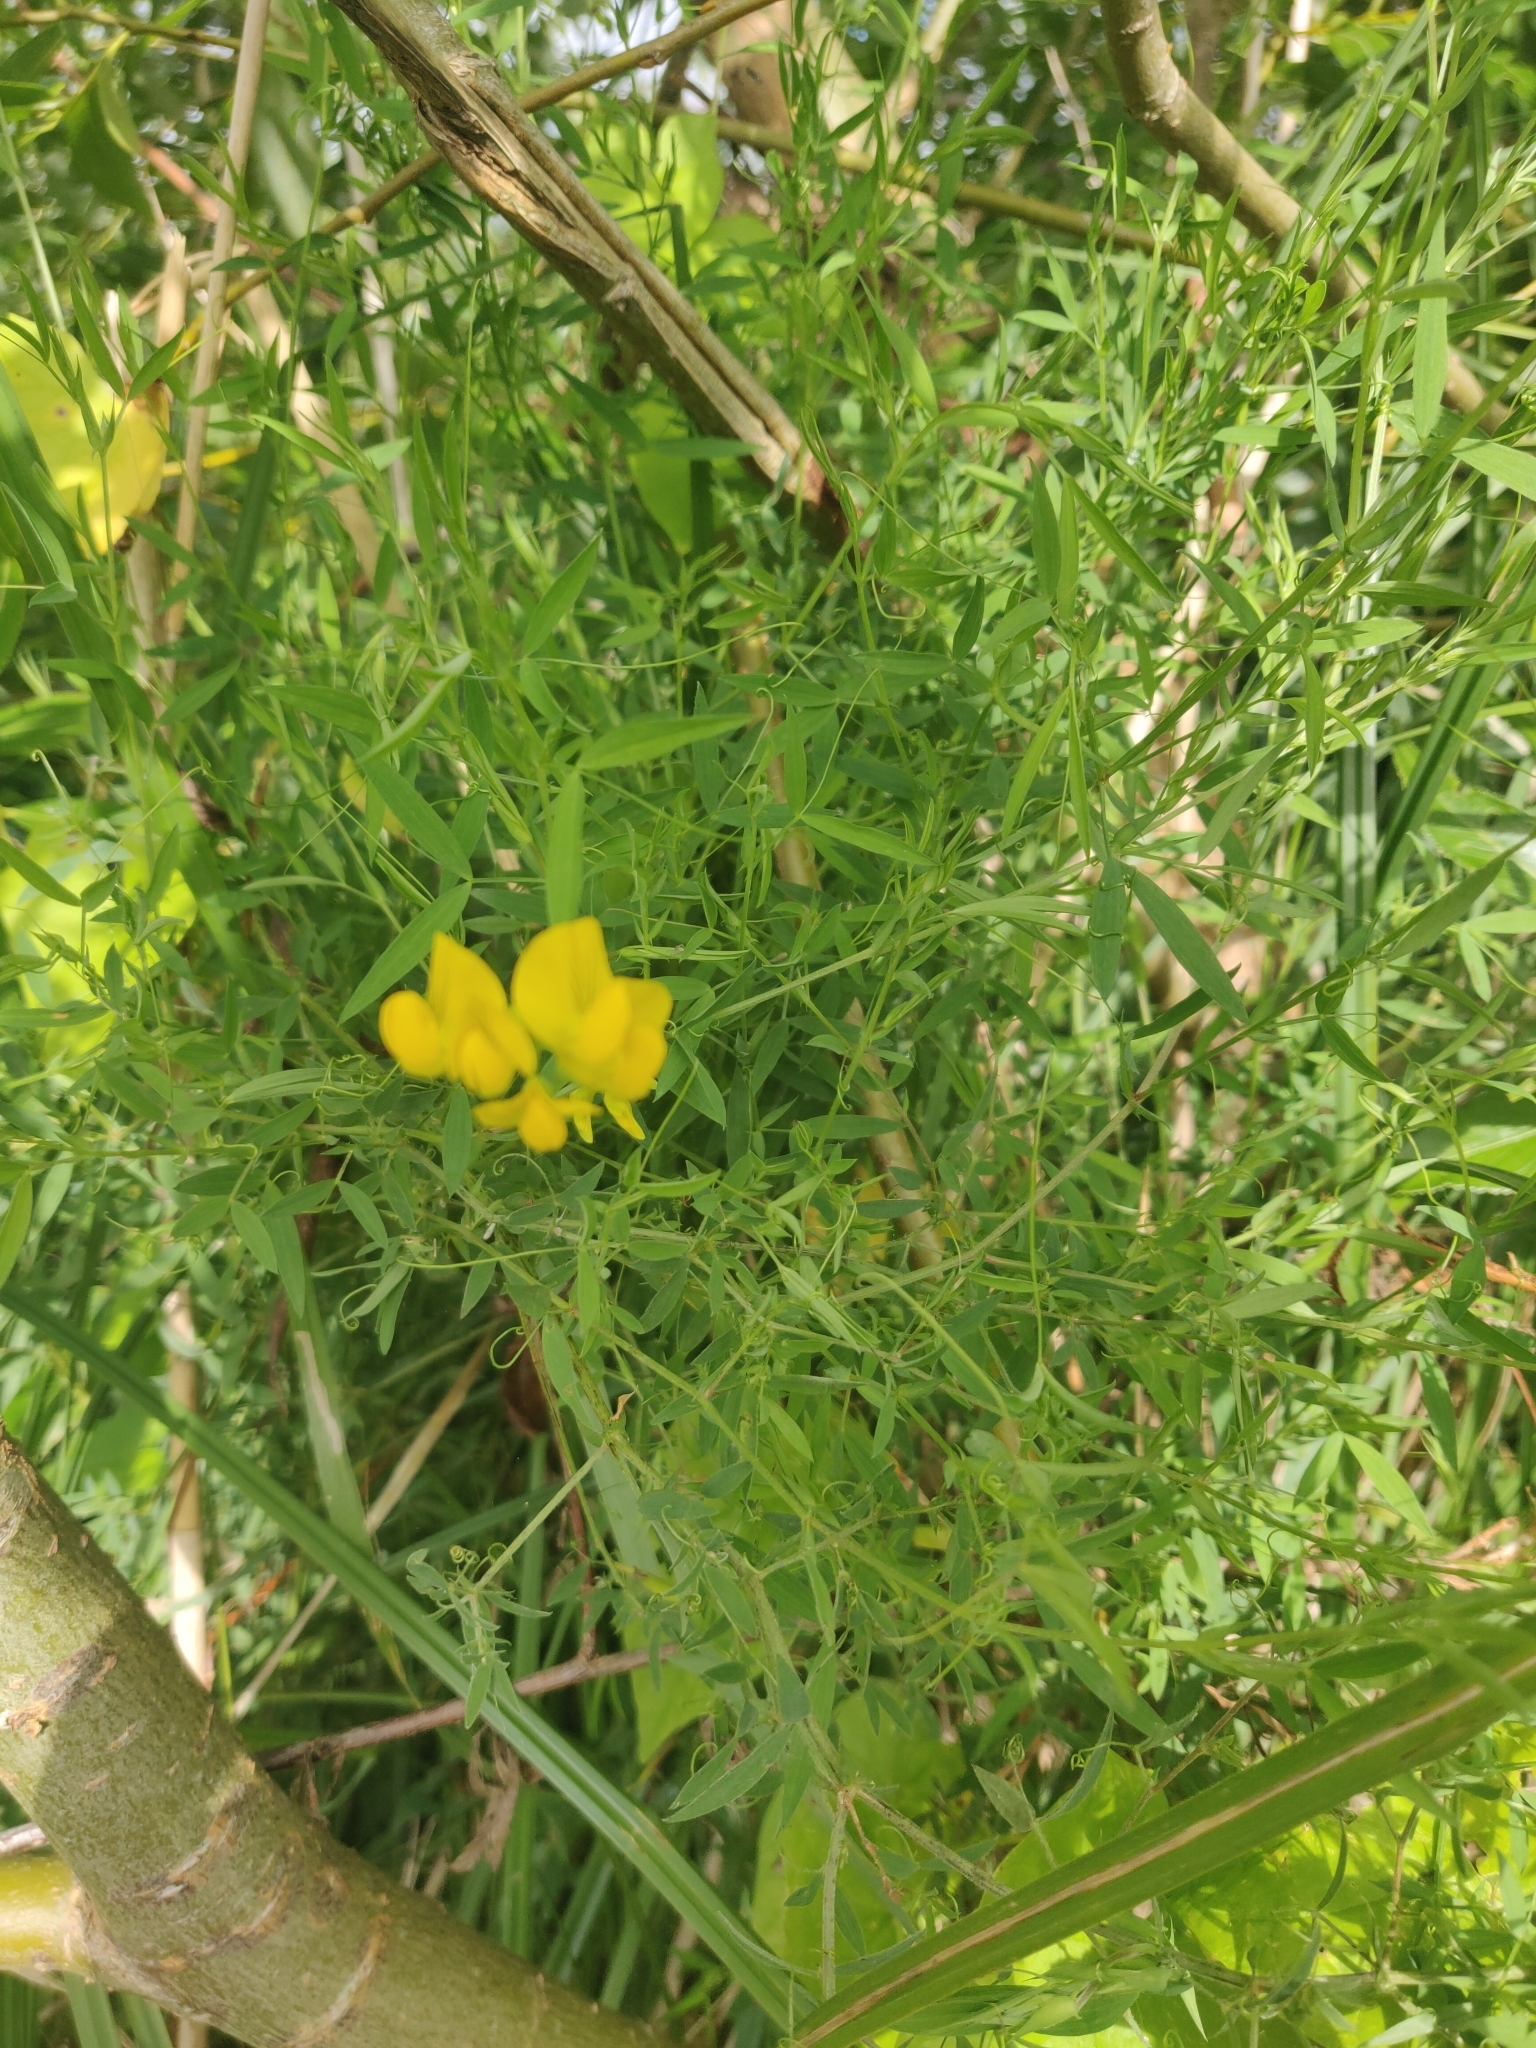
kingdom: Plantae
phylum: Tracheophyta
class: Magnoliopsida
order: Fabales
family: Fabaceae
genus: Lathyrus
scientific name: Lathyrus pratensis
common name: Meadow vetchling
